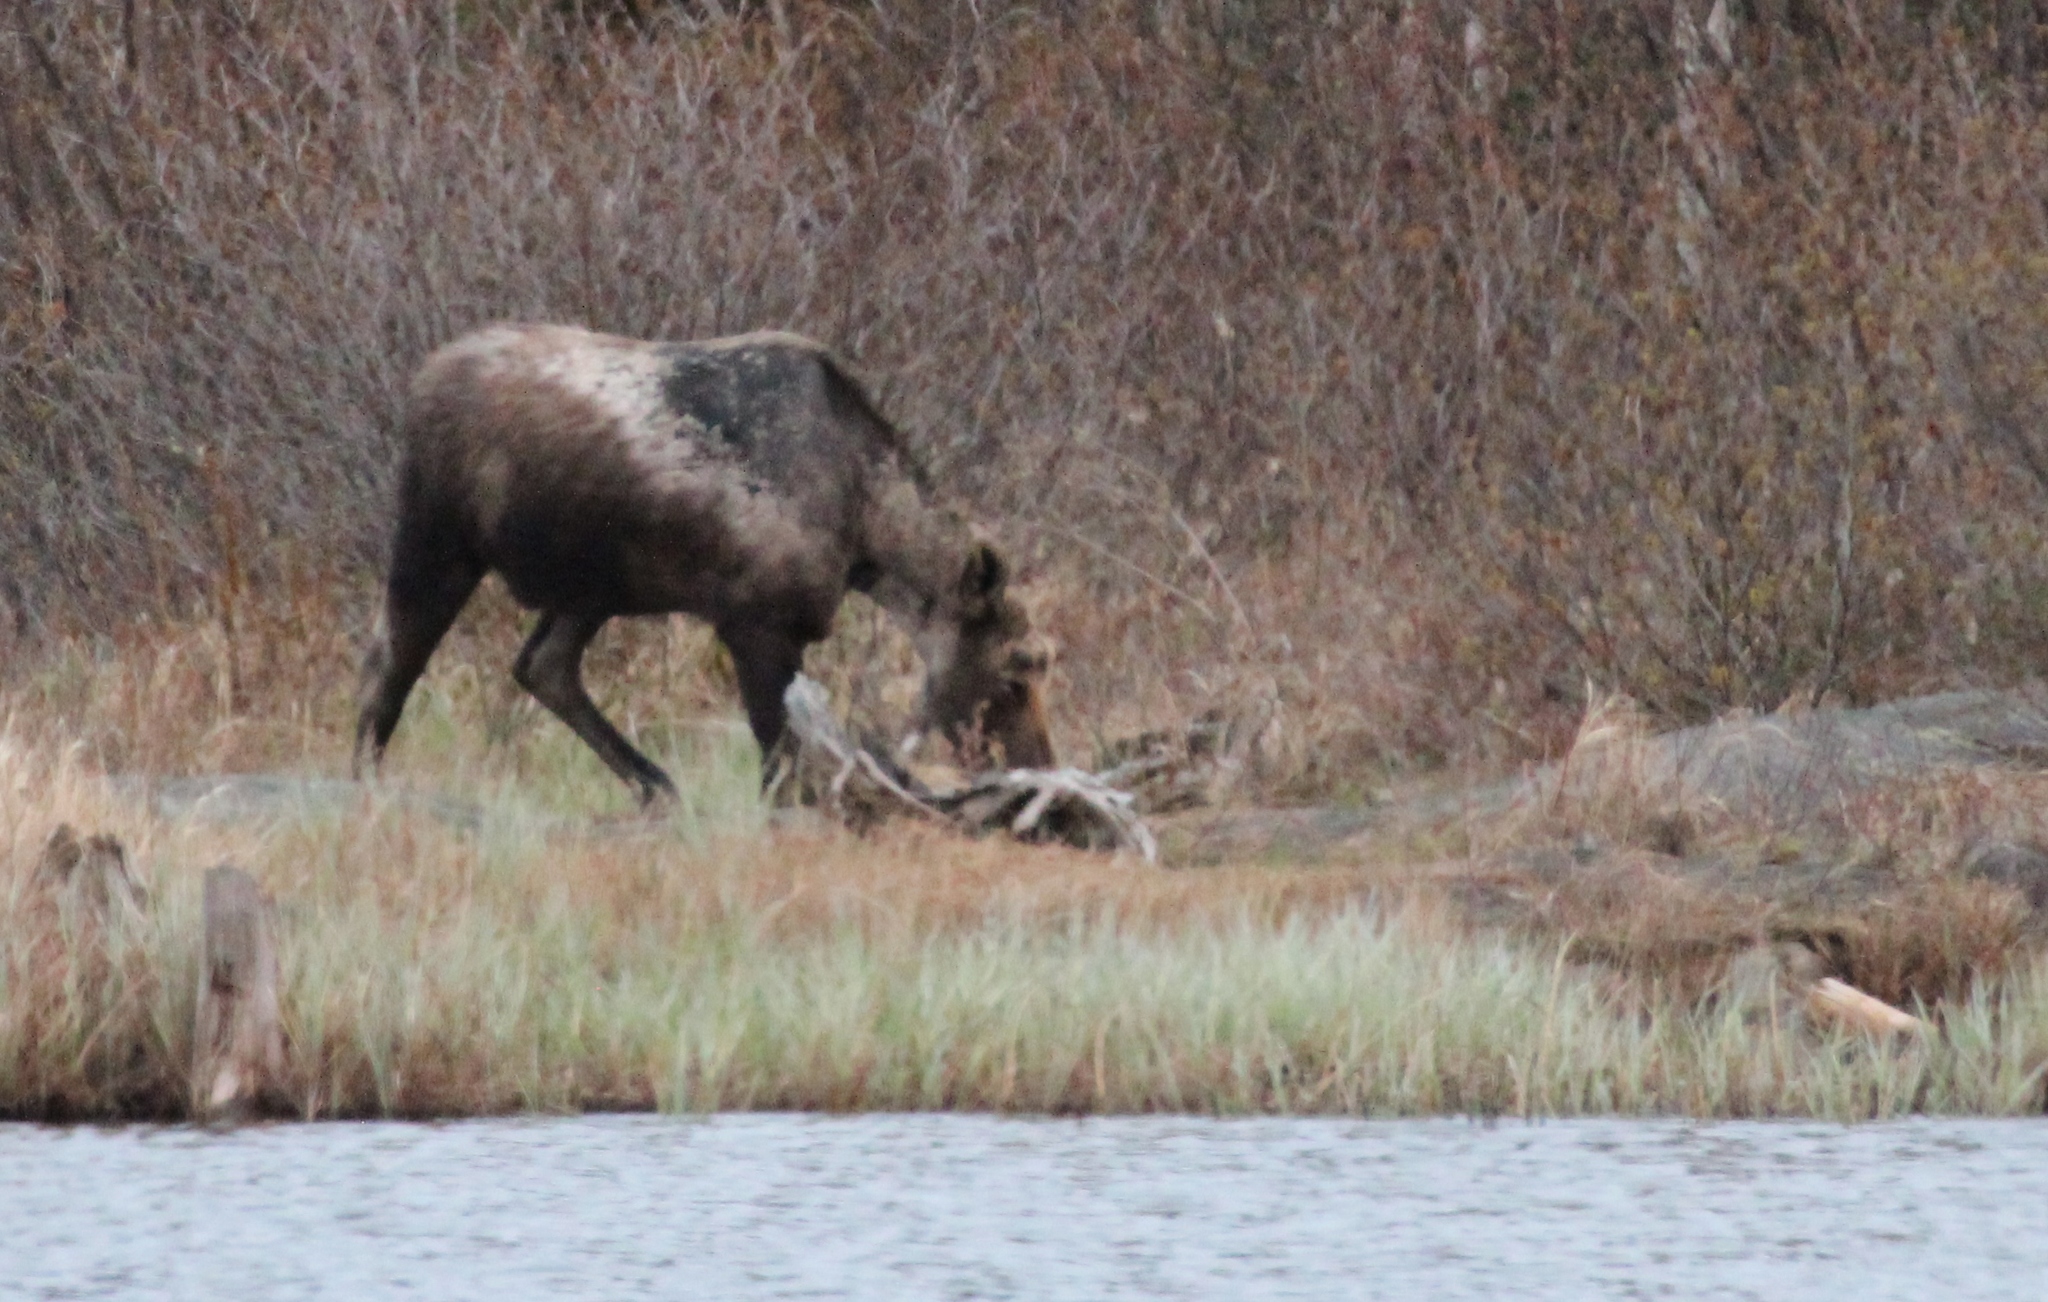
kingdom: Animalia
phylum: Chordata
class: Mammalia
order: Artiodactyla
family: Cervidae
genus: Alces
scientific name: Alces alces
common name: Moose
